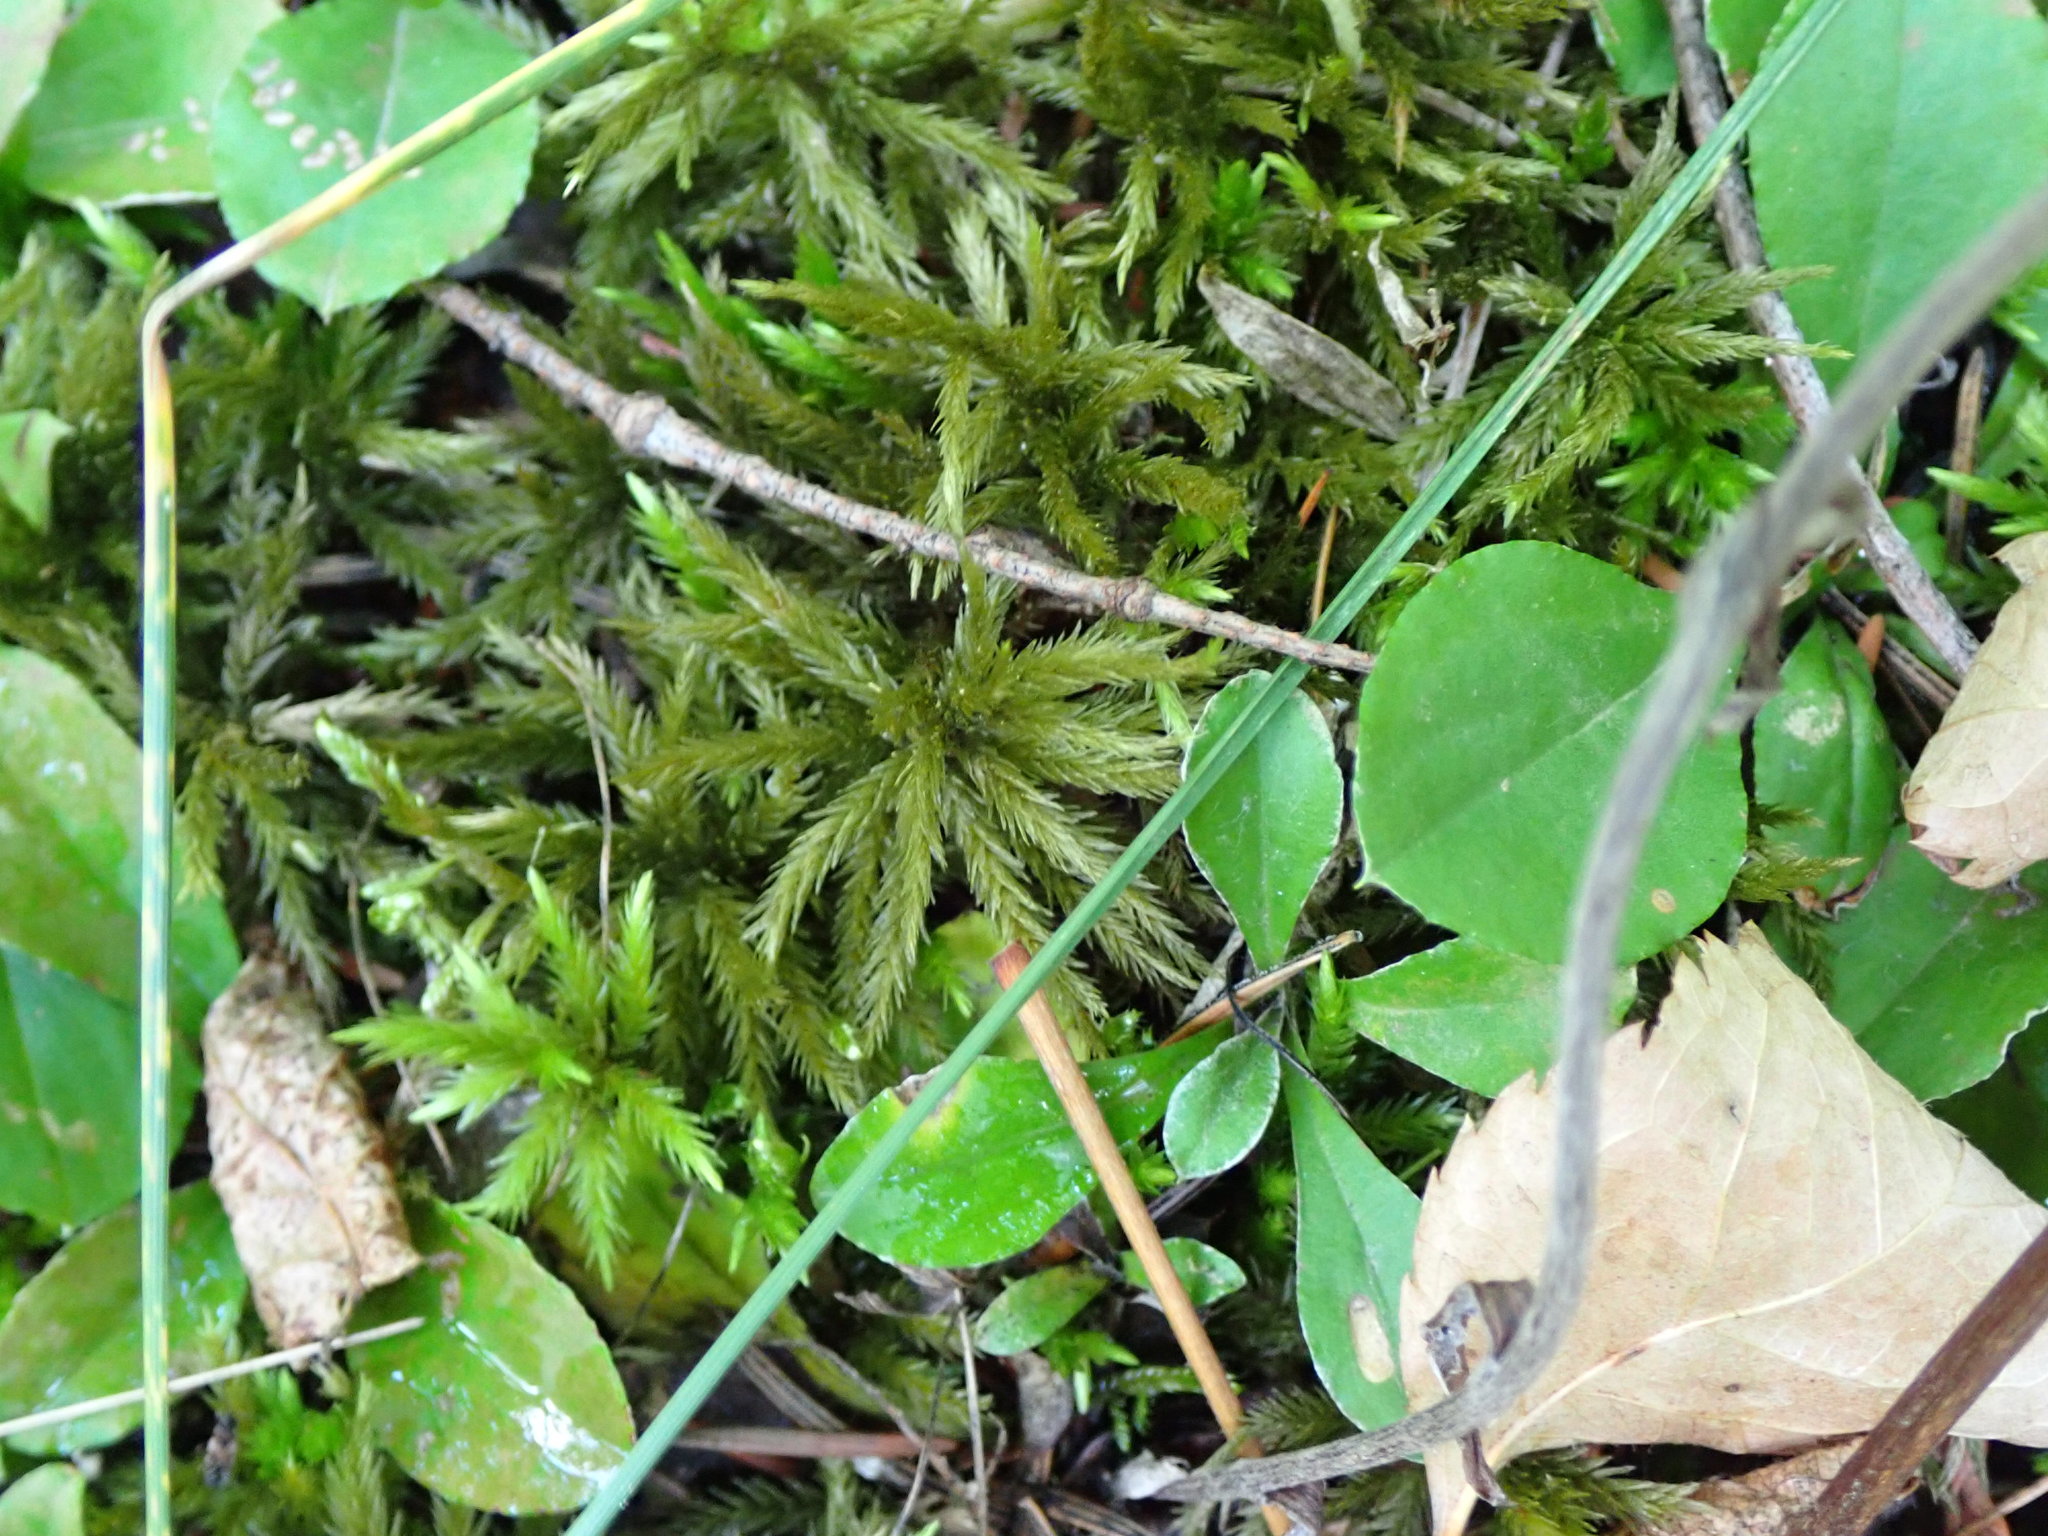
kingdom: Plantae
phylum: Bryophyta
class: Bryopsida
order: Hypnales
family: Climaciaceae
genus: Climacium
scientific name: Climacium dendroides
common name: Northern tree moss
